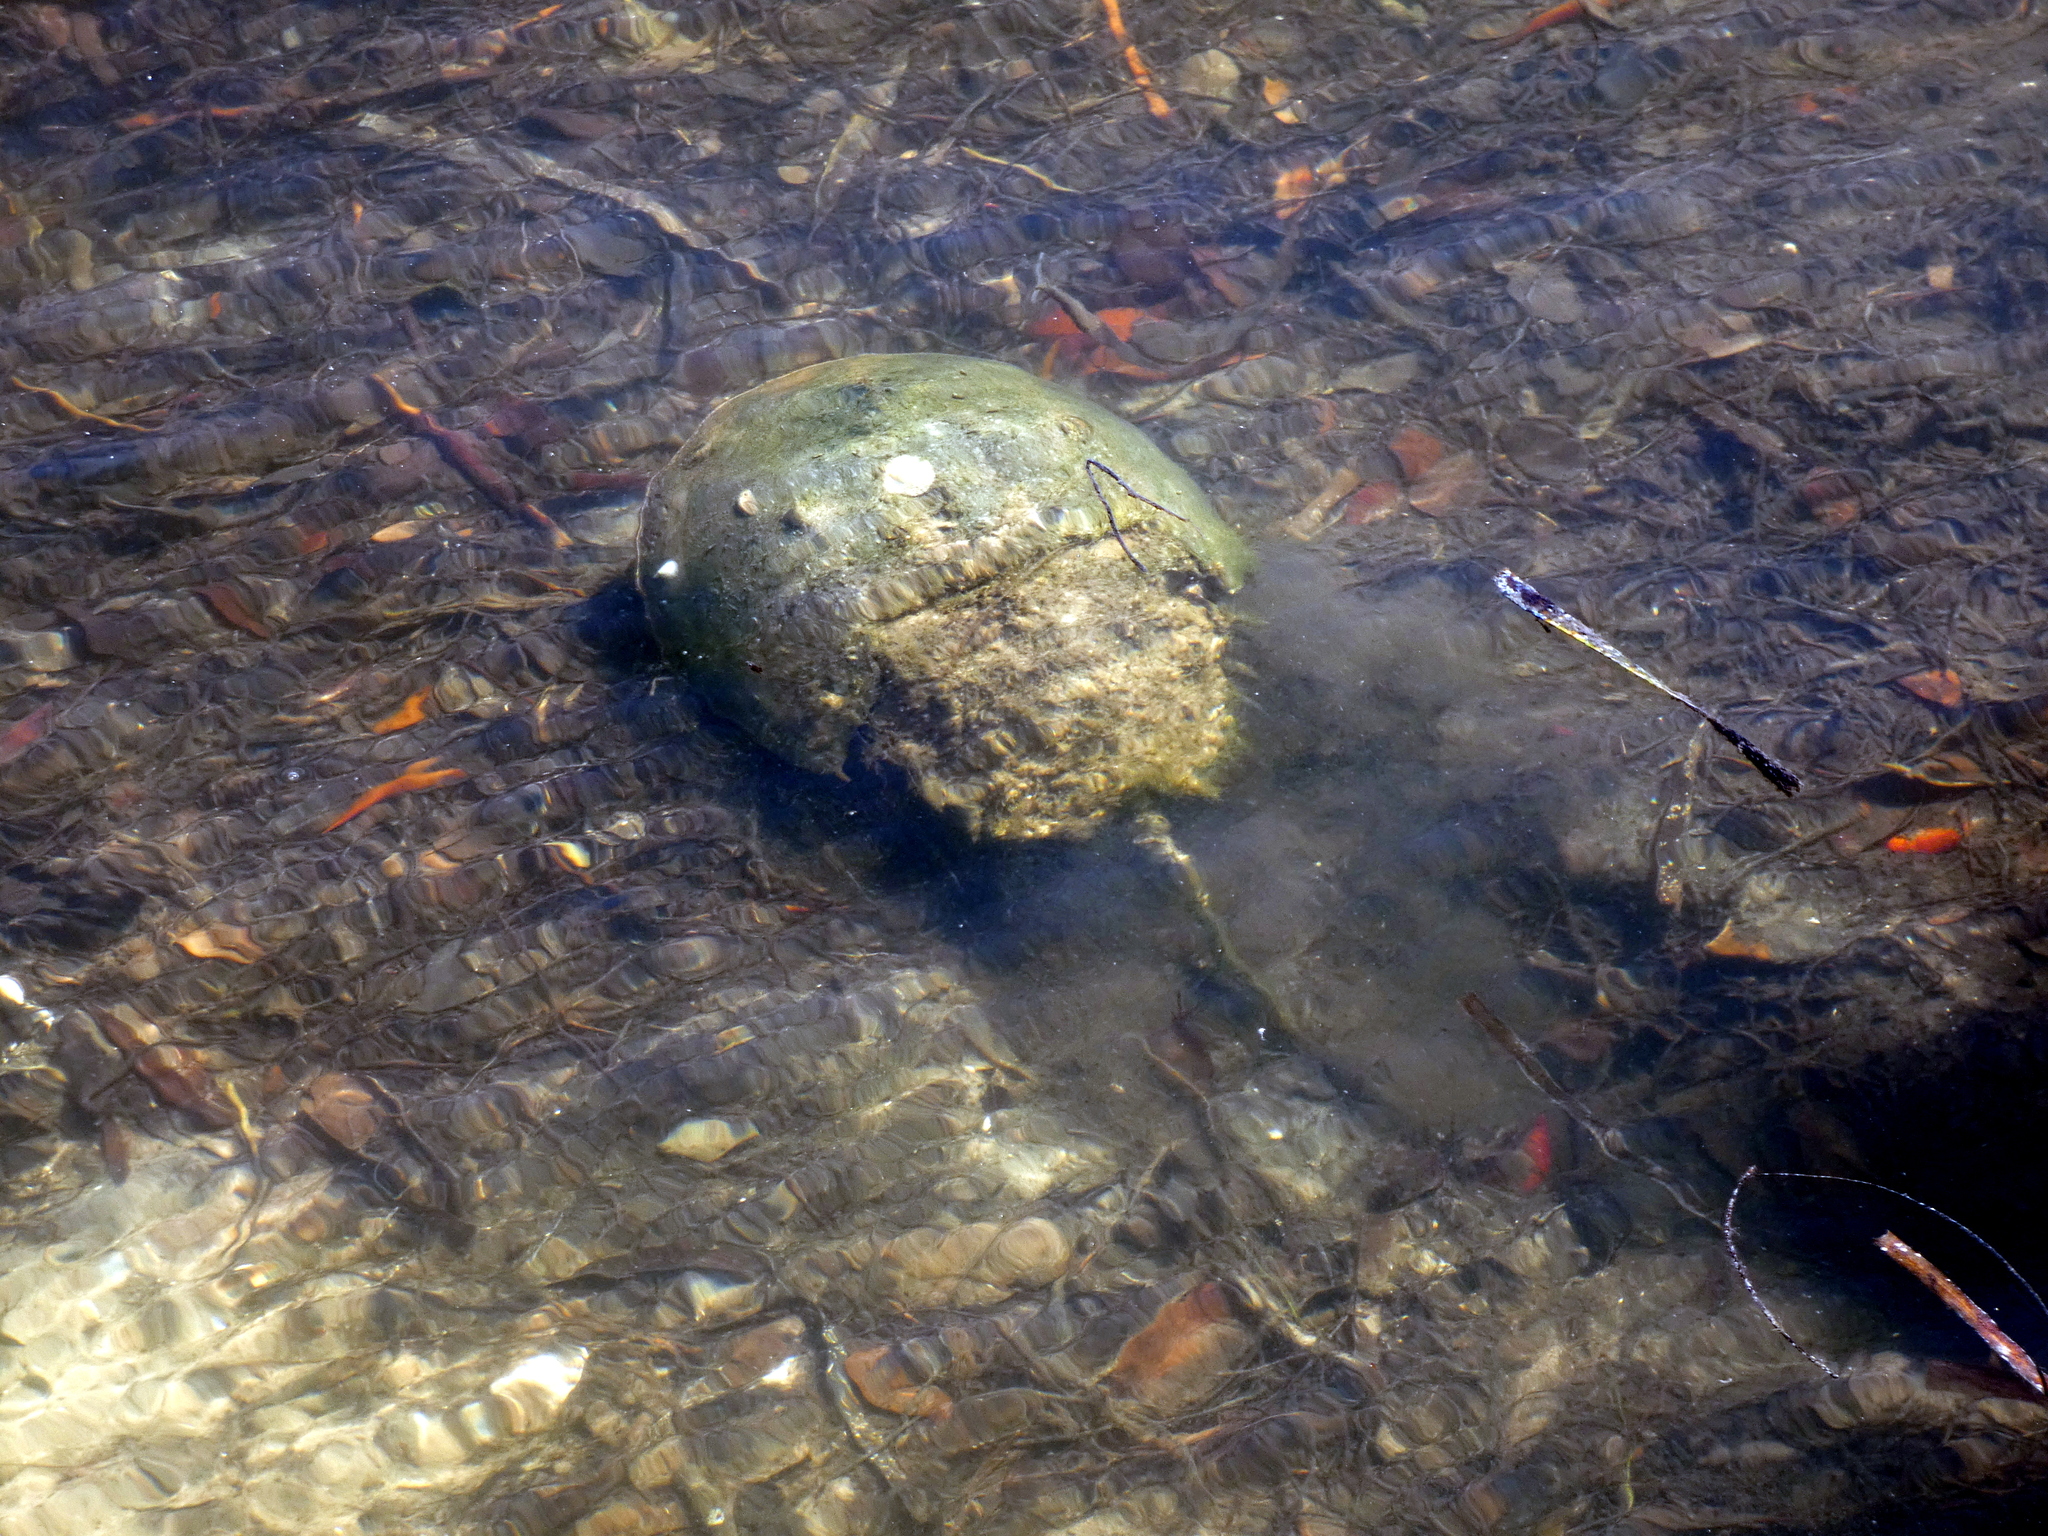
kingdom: Animalia
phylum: Arthropoda
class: Merostomata
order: Xiphosurida
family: Limulidae
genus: Limulus
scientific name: Limulus polyphemus
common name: Horseshoe crab
